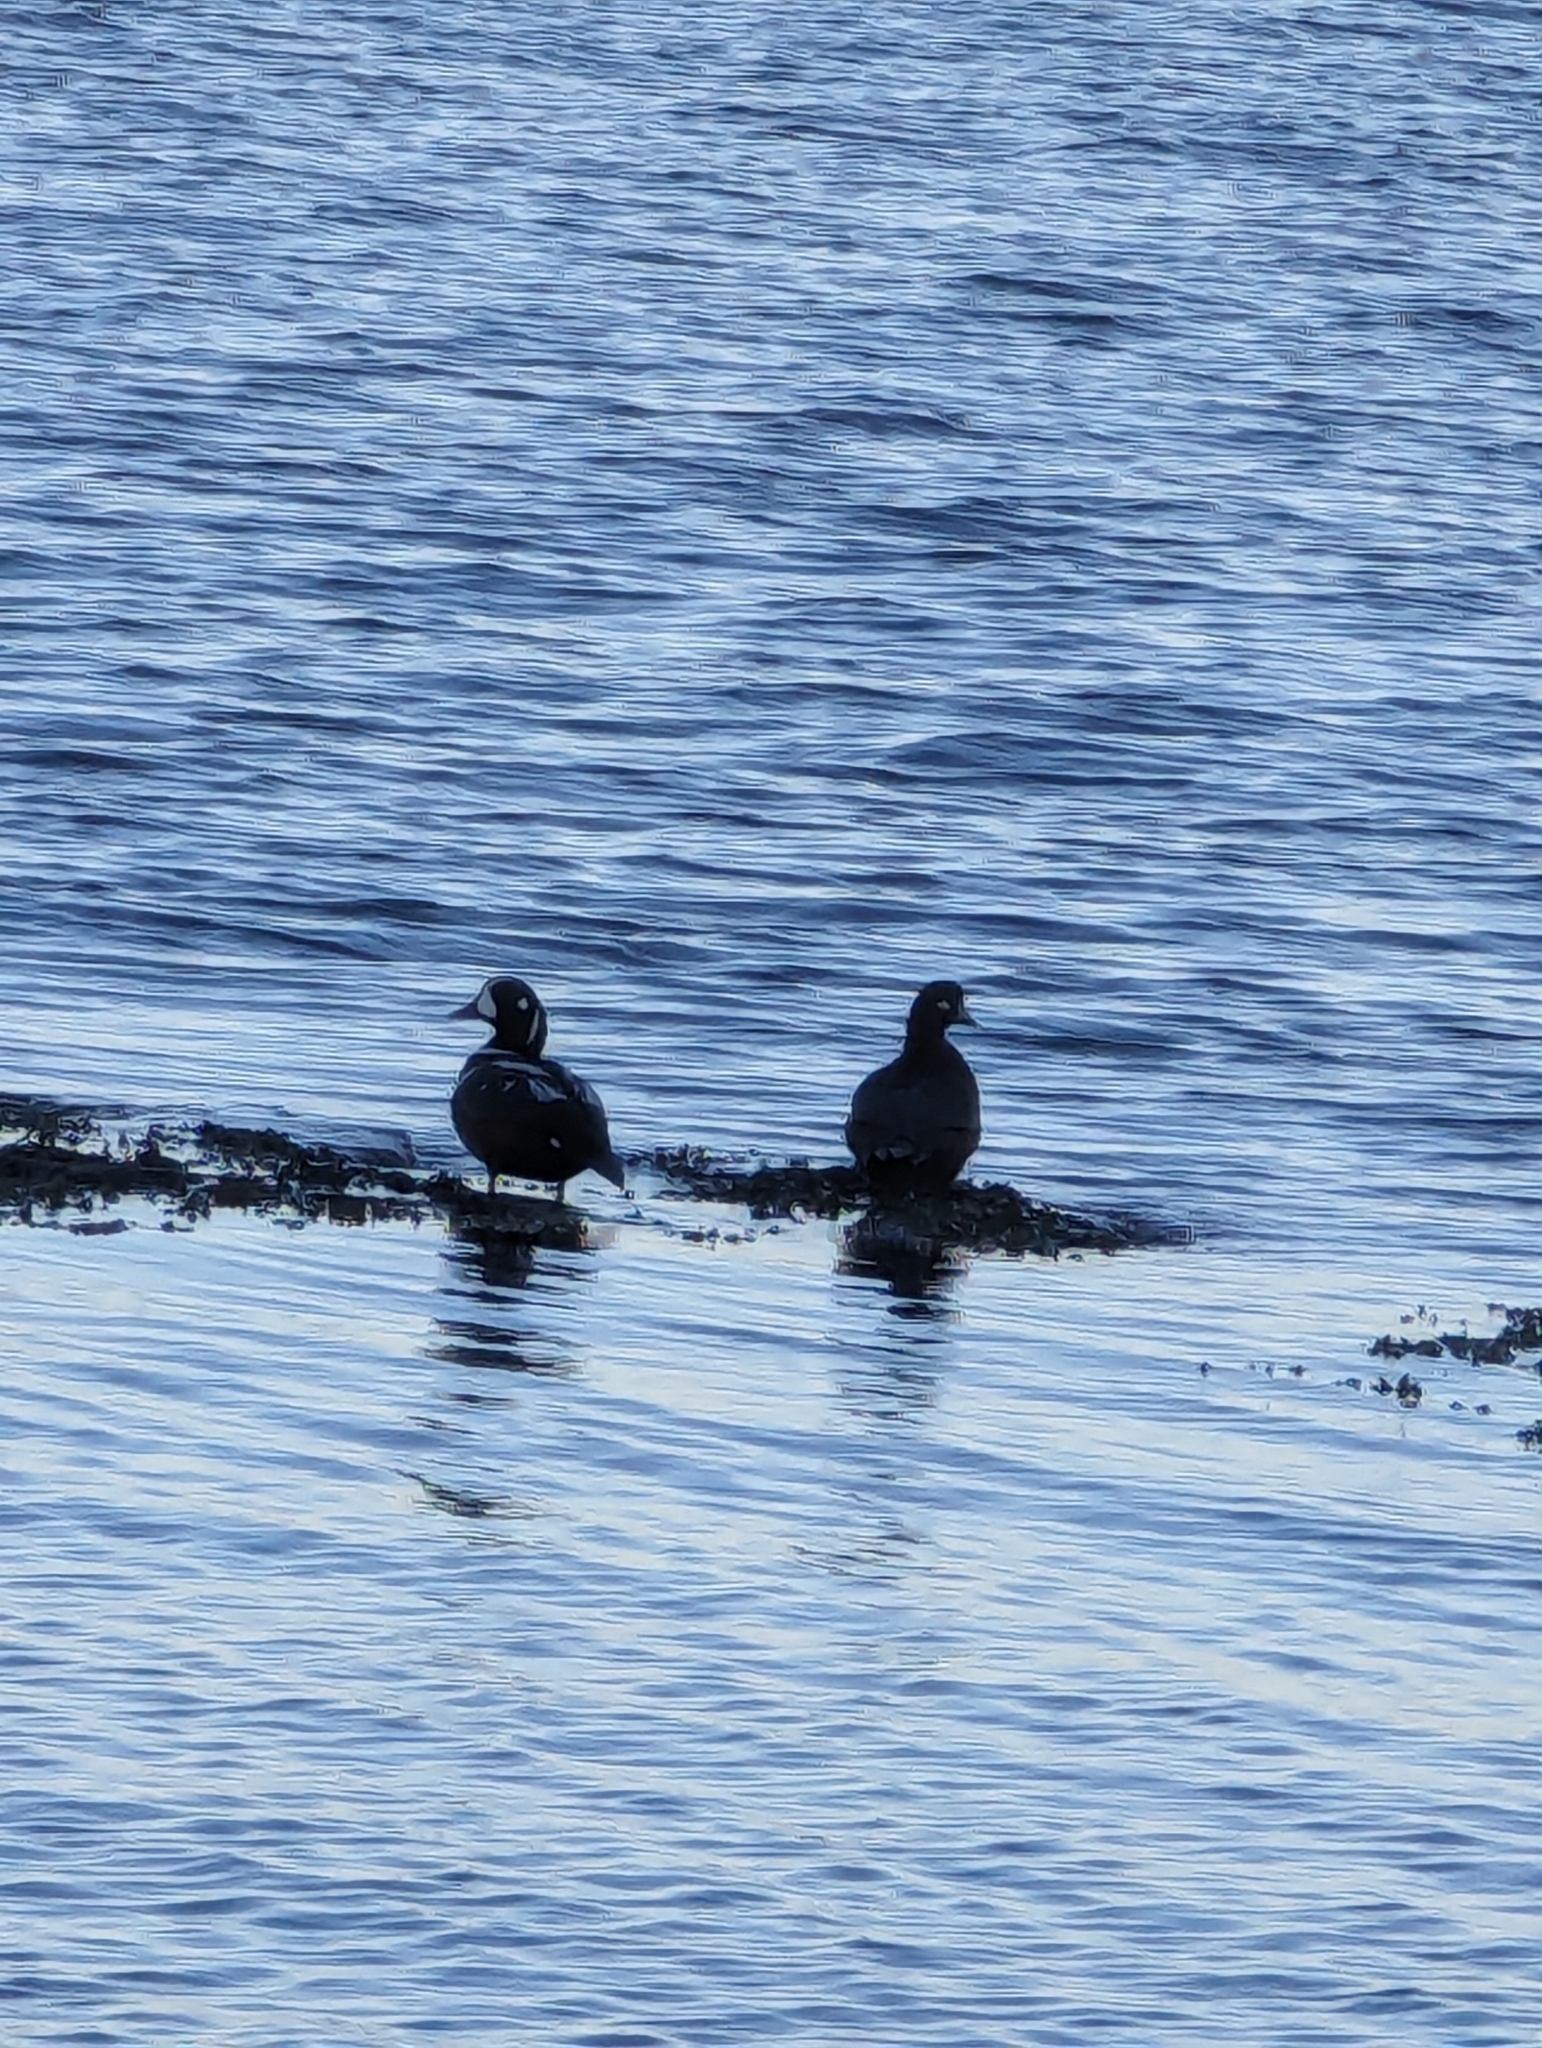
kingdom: Animalia
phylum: Chordata
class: Aves
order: Anseriformes
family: Anatidae
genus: Histrionicus
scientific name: Histrionicus histrionicus
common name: Harlequin duck
